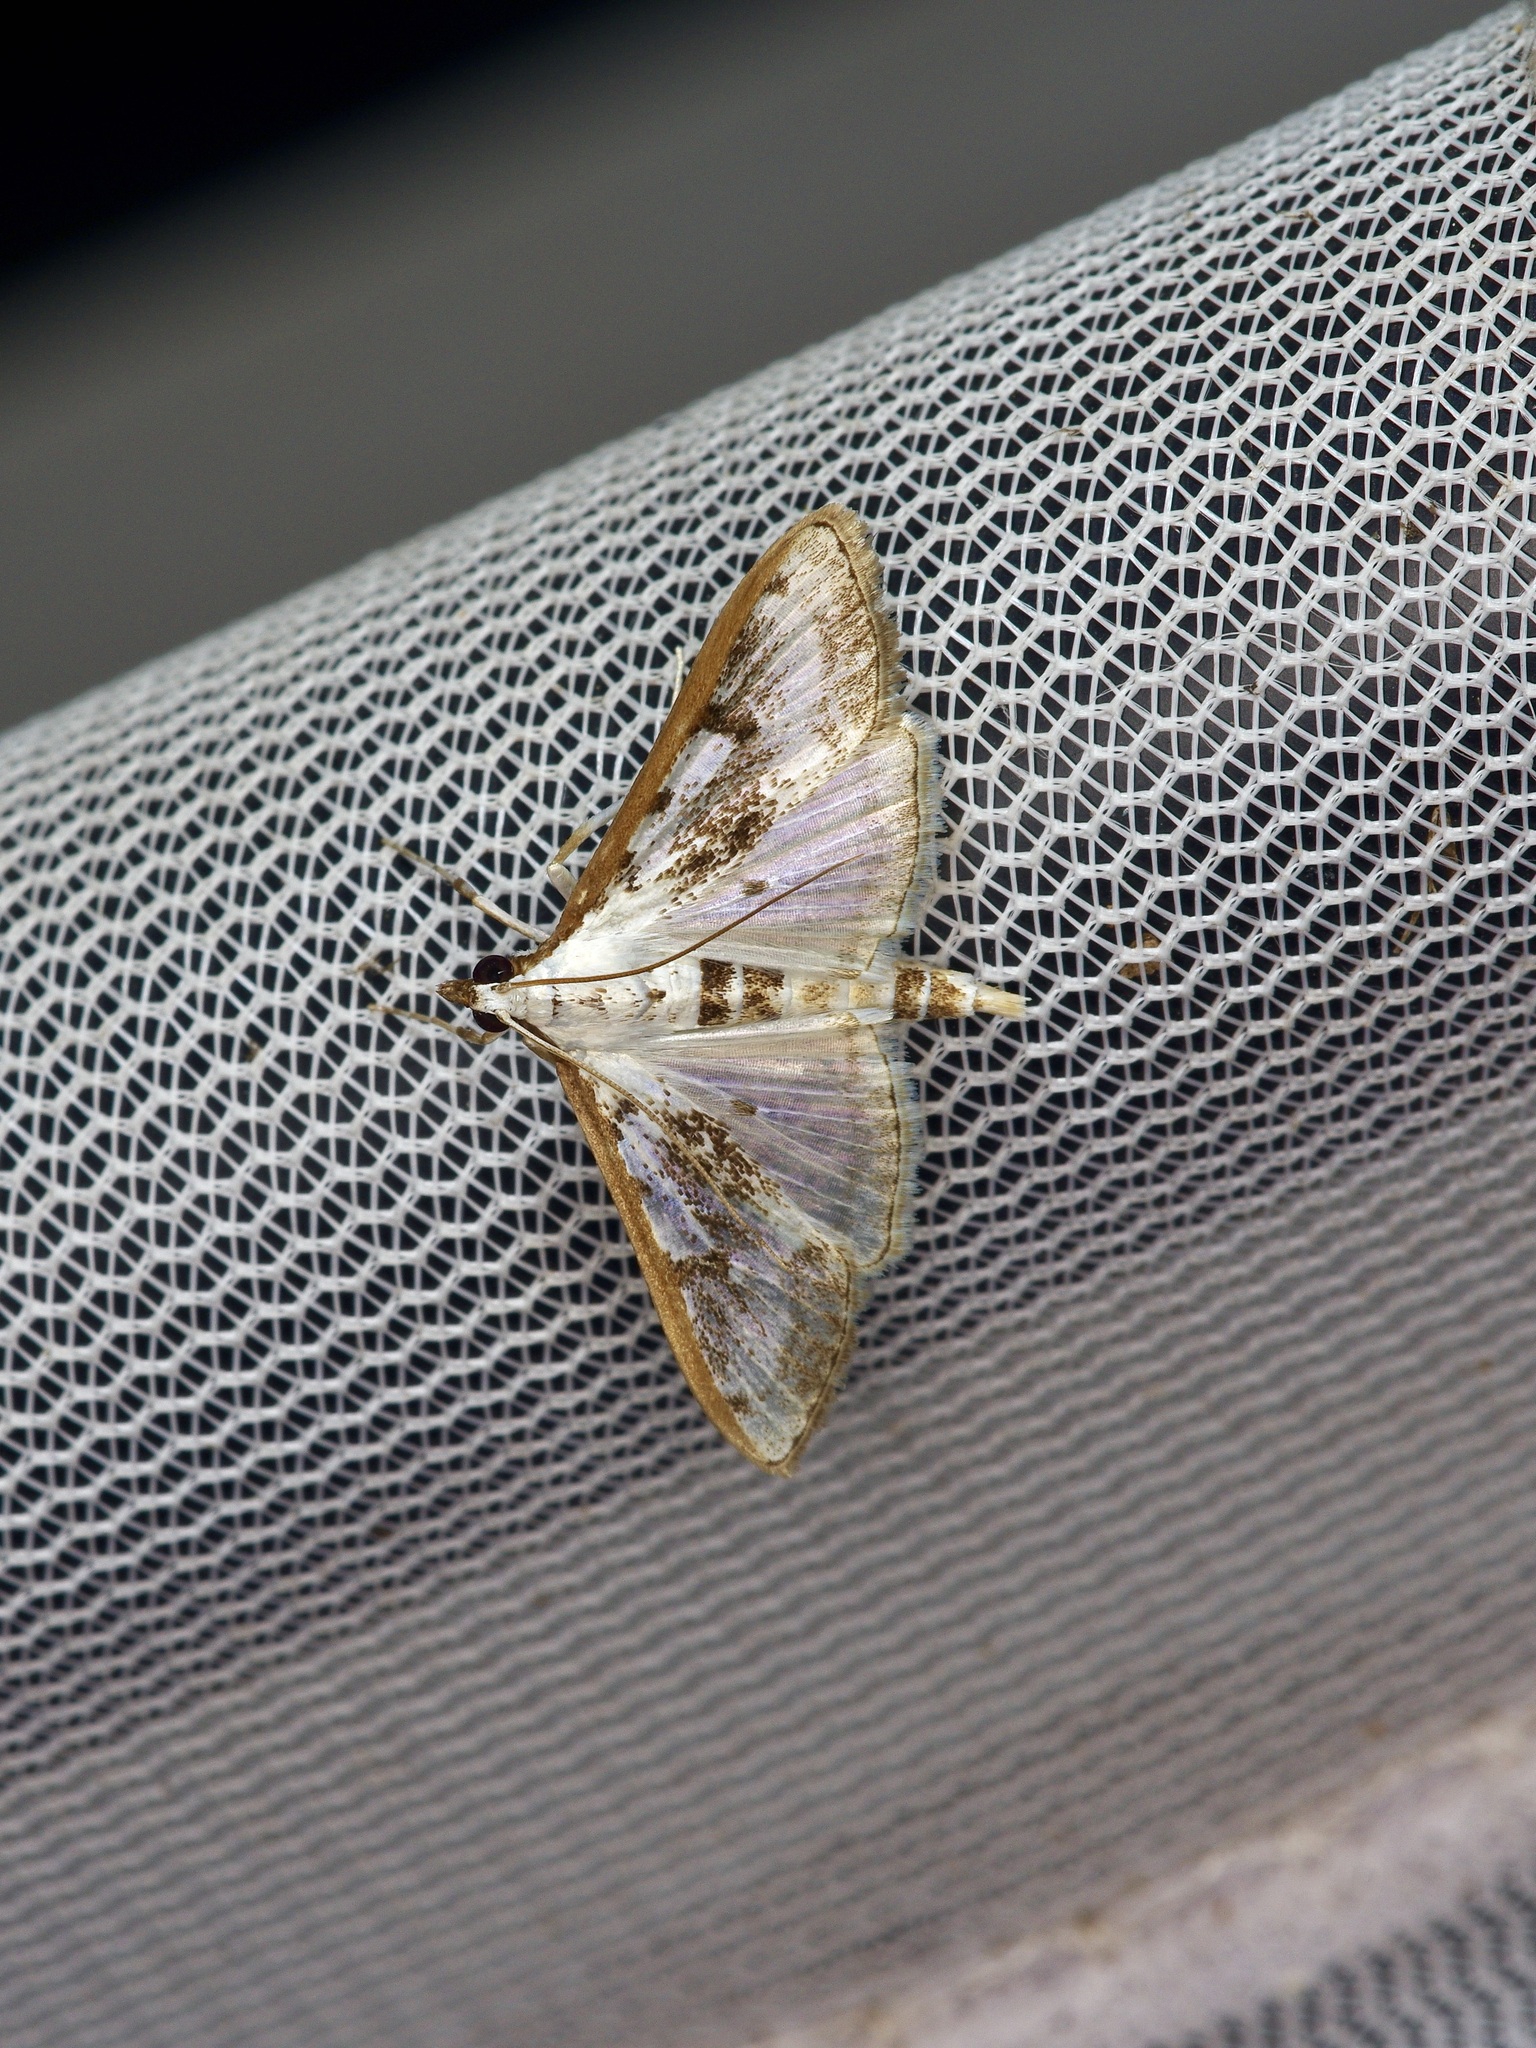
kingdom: Animalia
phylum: Arthropoda
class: Insecta
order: Lepidoptera
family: Crambidae
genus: Palpita
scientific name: Palpita gracilalis
